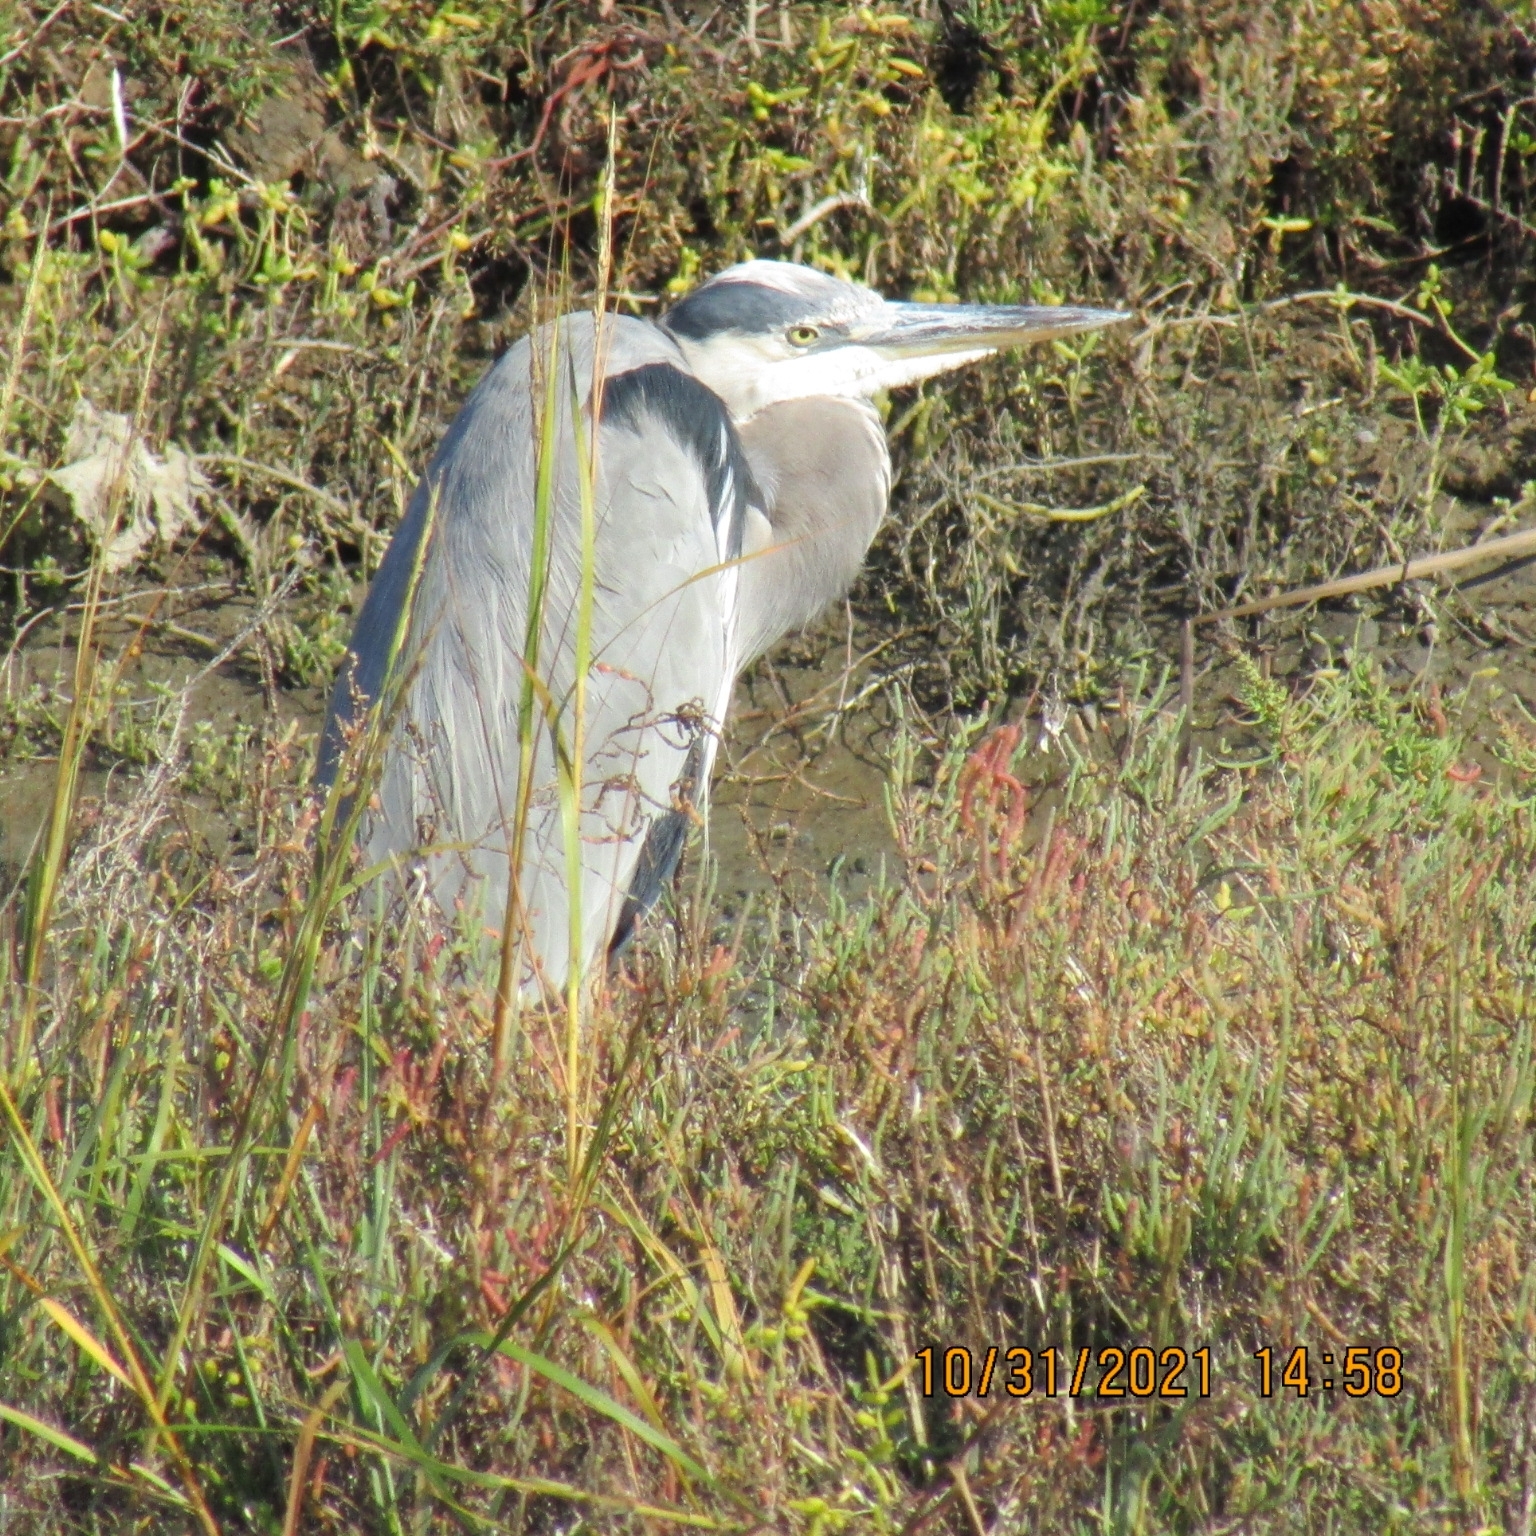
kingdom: Animalia
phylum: Chordata
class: Aves
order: Pelecaniformes
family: Ardeidae
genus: Ardea
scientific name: Ardea herodias
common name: Great blue heron
